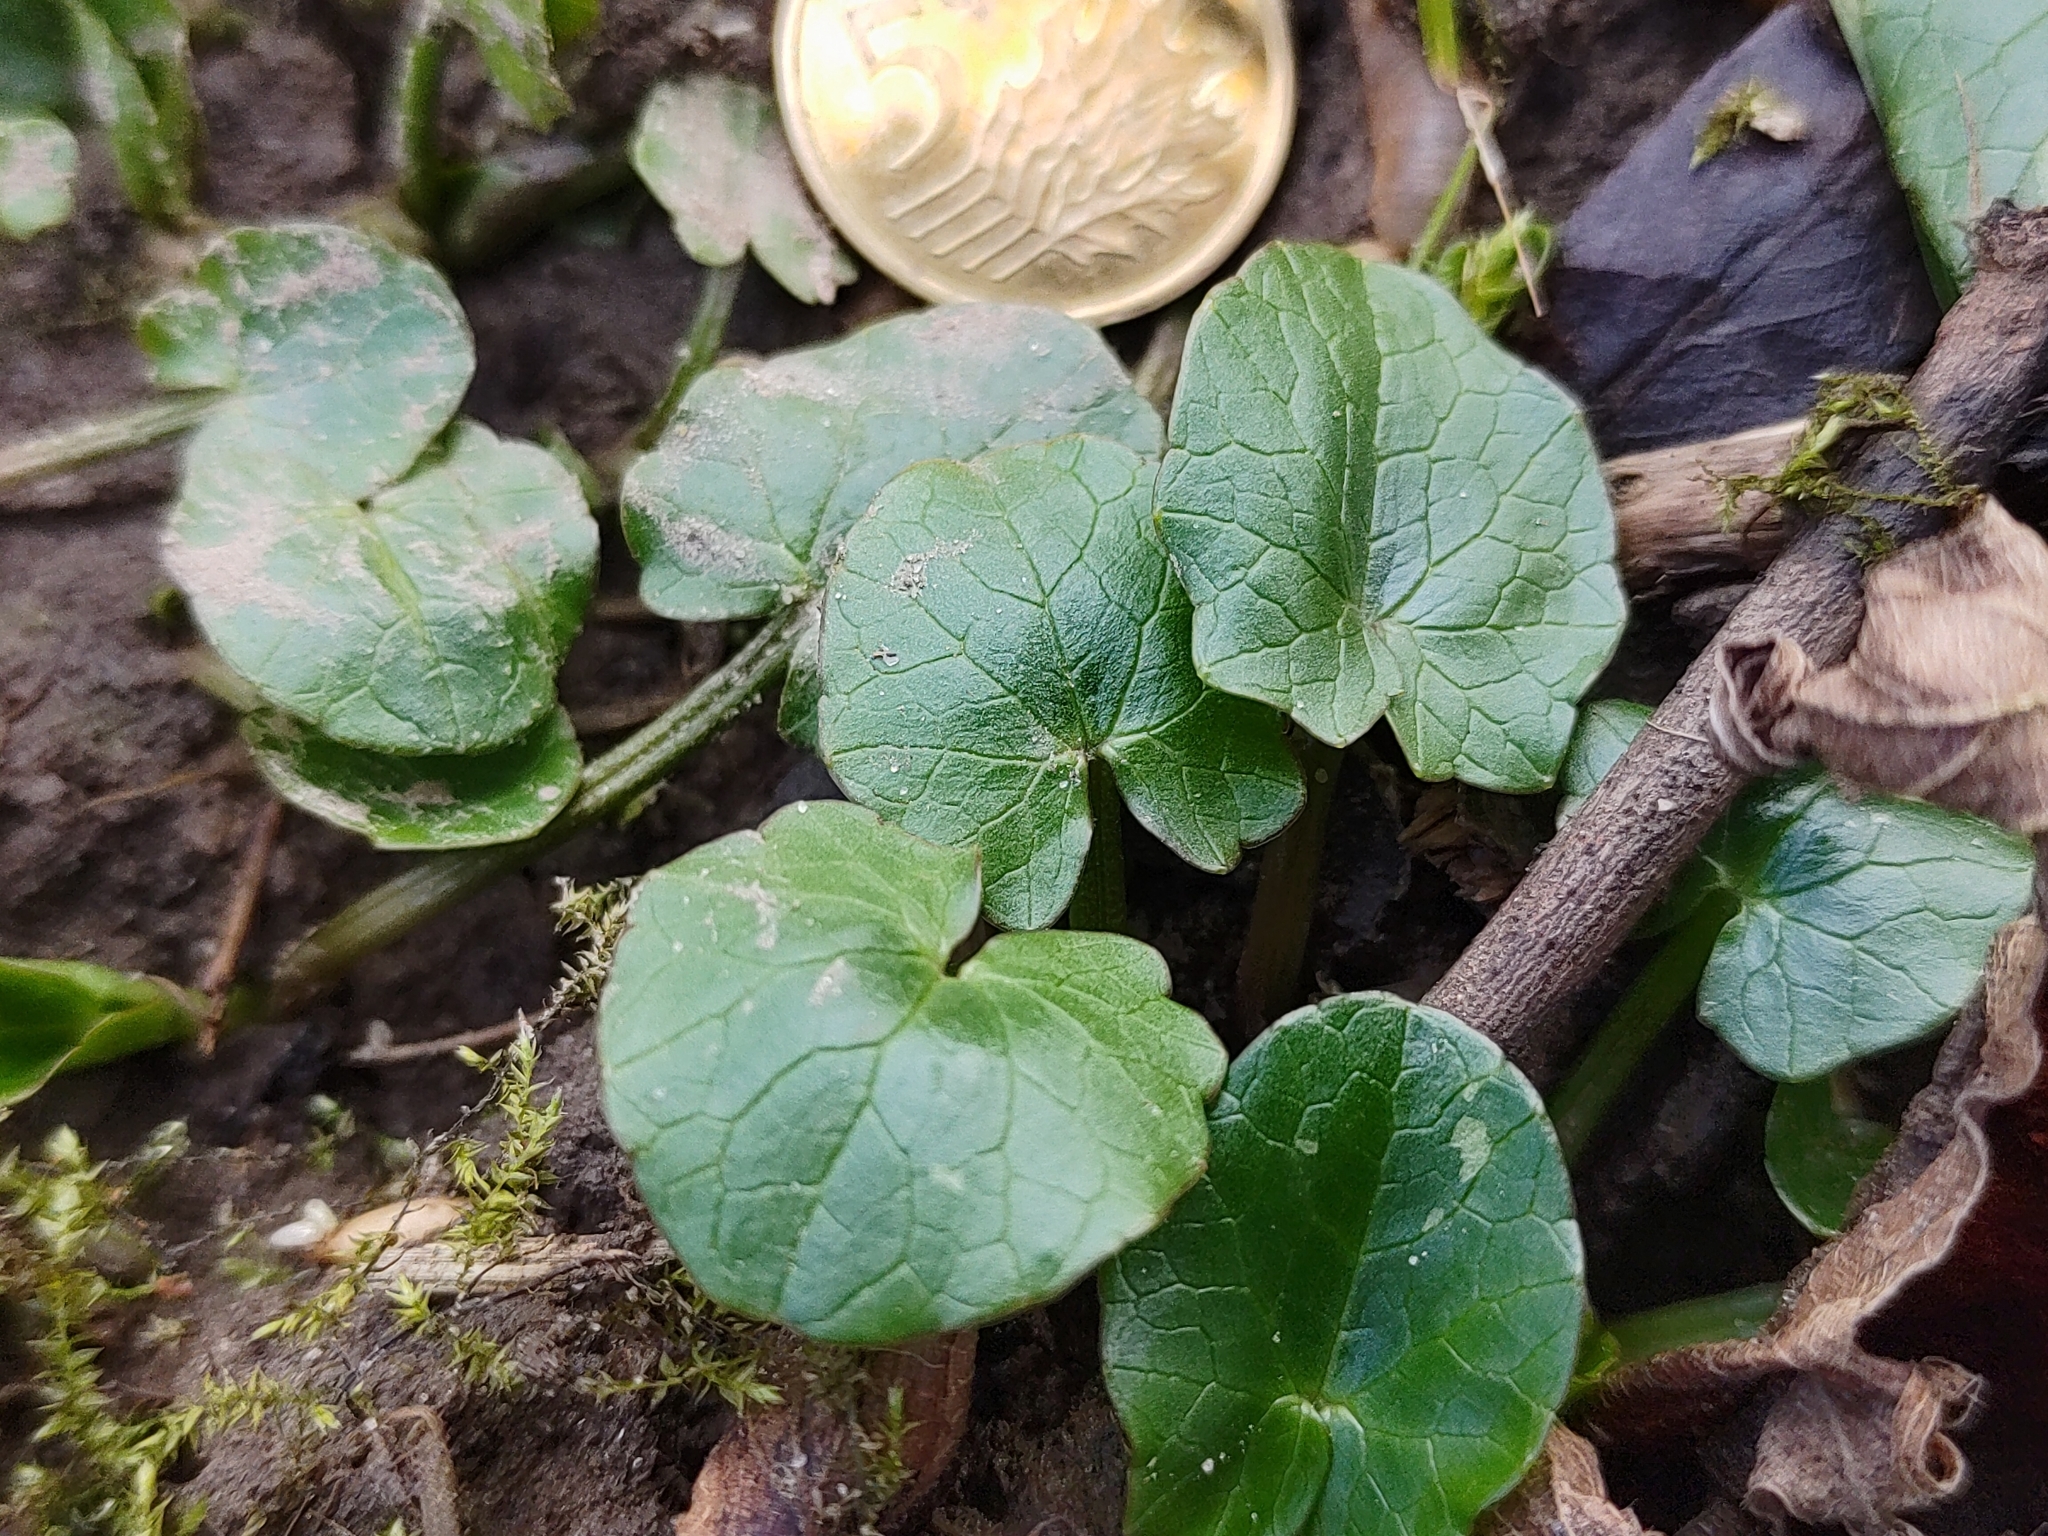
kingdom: Plantae
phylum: Tracheophyta
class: Magnoliopsida
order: Ranunculales
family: Ranunculaceae
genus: Ficaria
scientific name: Ficaria verna
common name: Lesser celandine
